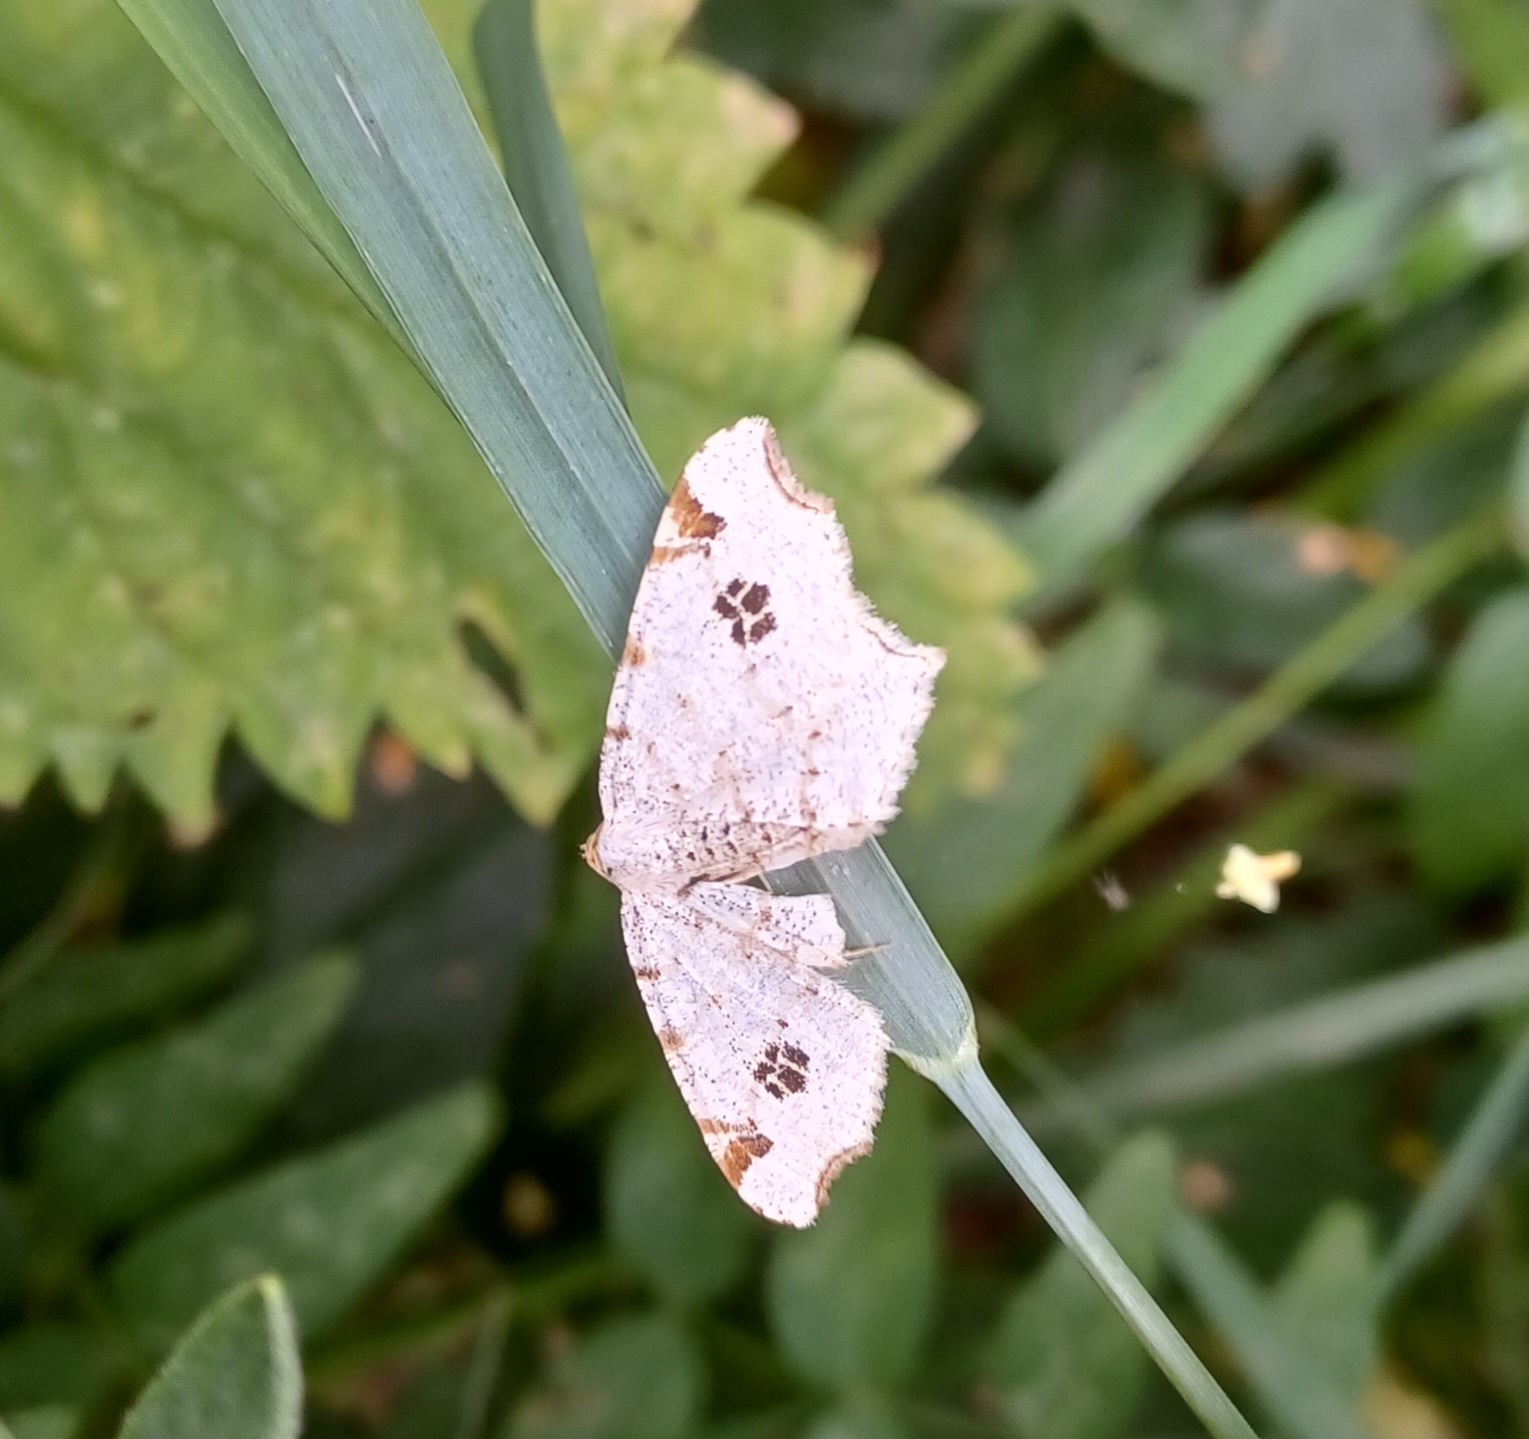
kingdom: Animalia
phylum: Arthropoda
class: Insecta
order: Lepidoptera
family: Geometridae
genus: Macaria
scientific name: Macaria notata
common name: Peacock moth
